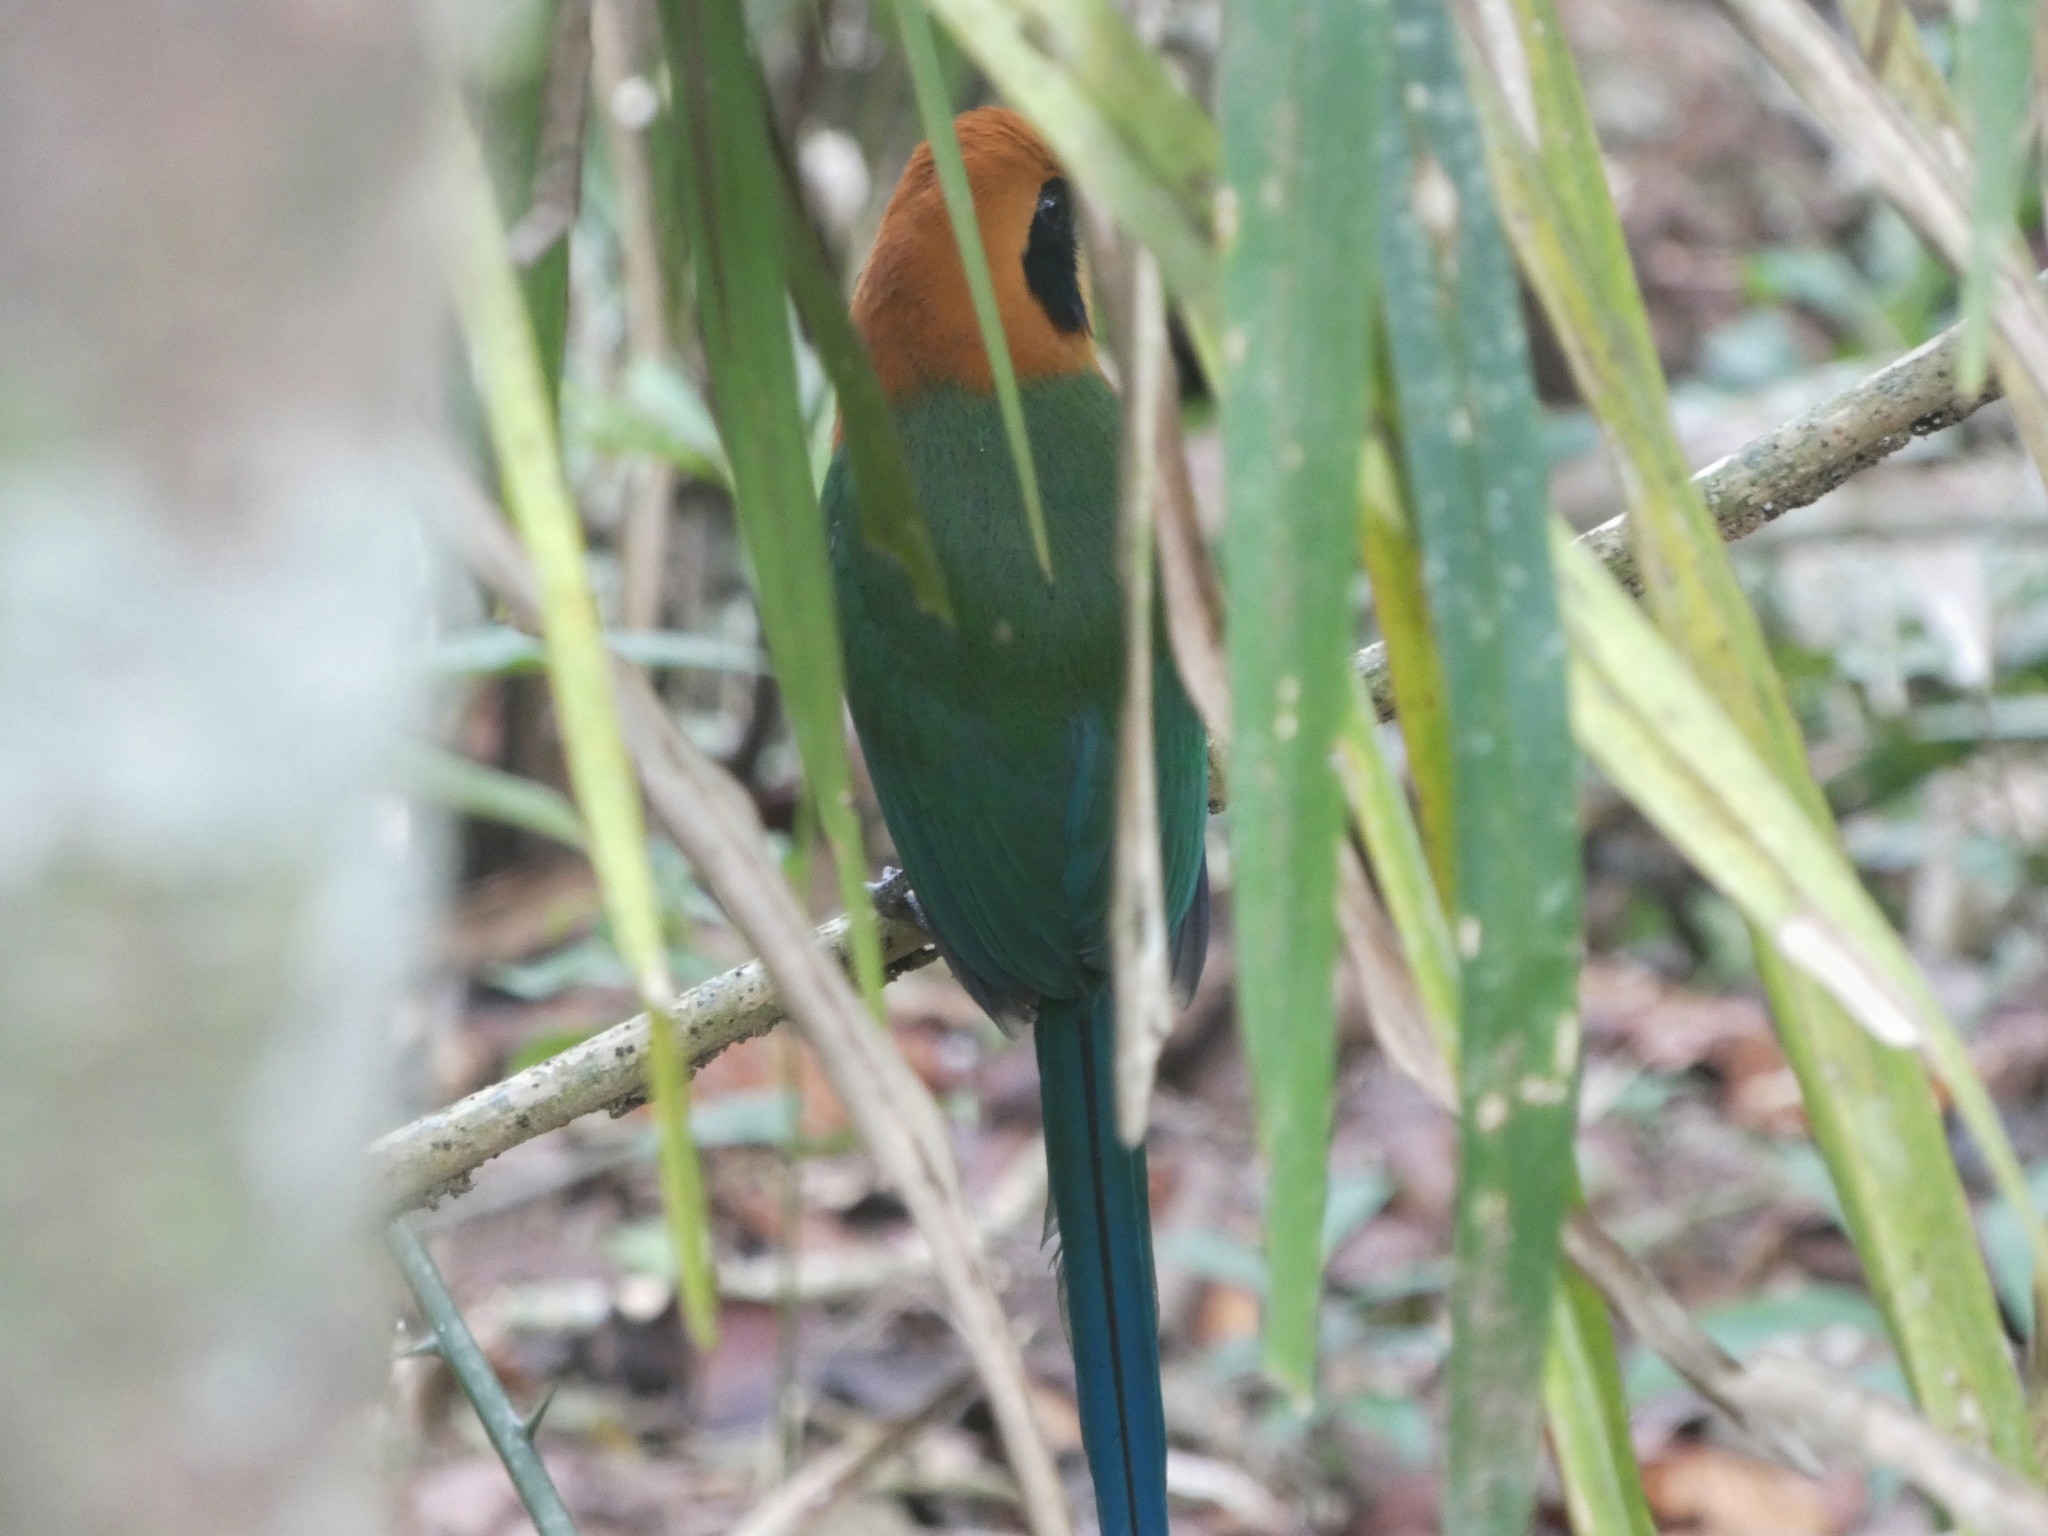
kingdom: Animalia
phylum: Chordata
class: Aves
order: Coraciiformes
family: Momotidae
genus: Baryphthengus
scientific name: Baryphthengus martii
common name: Rufous motmot
